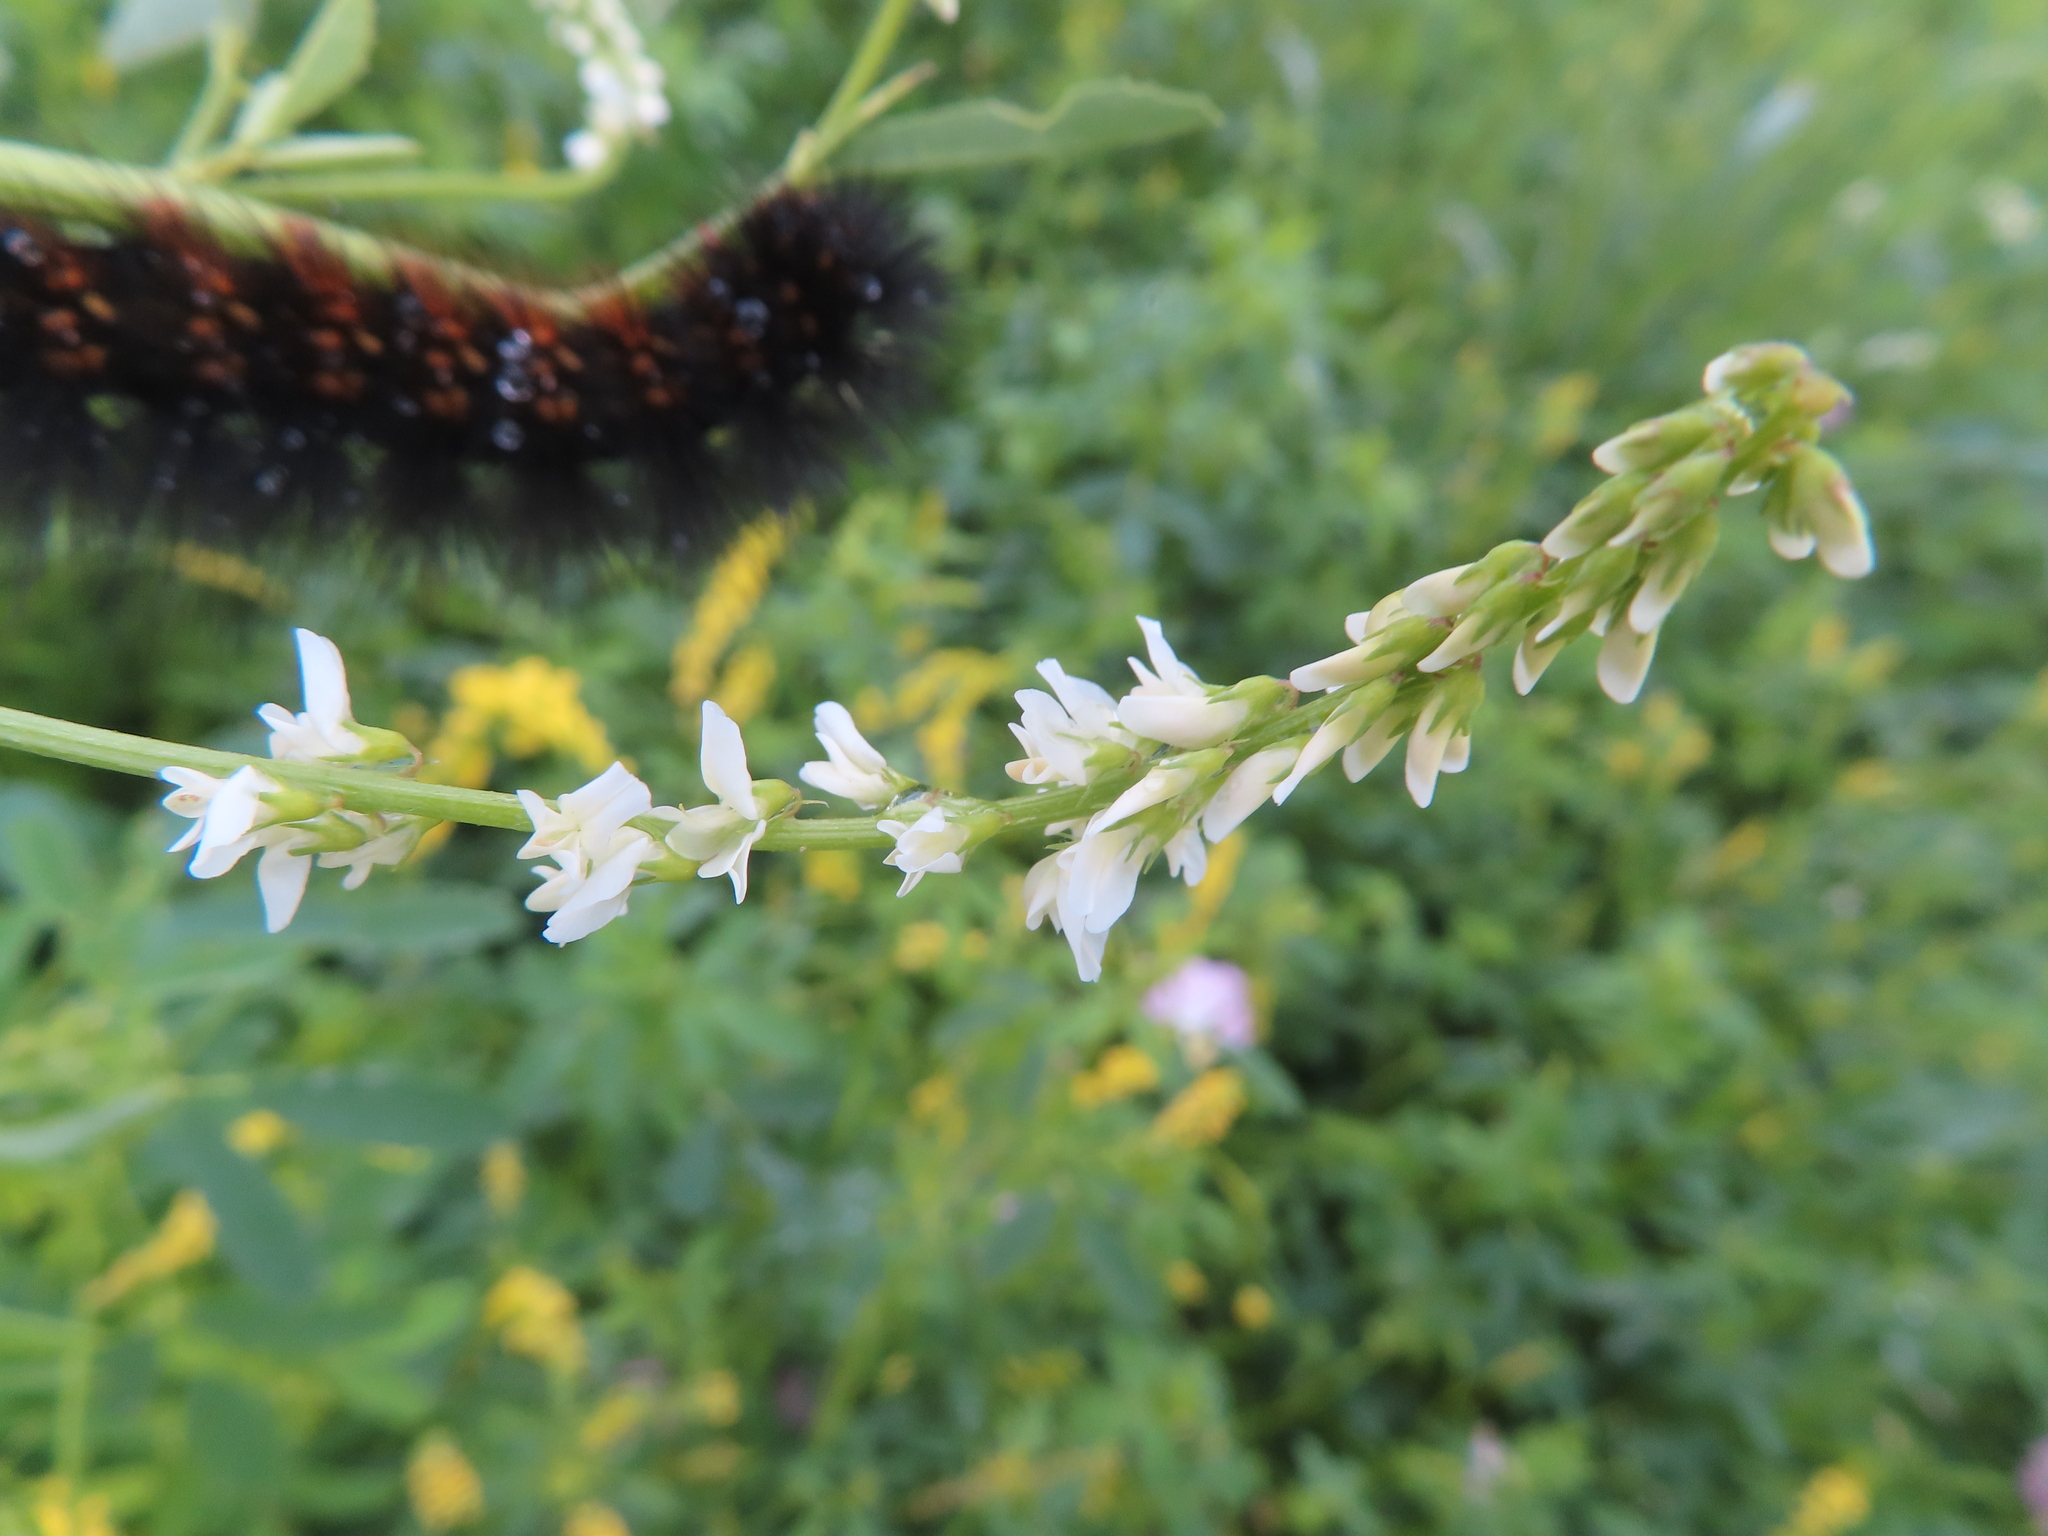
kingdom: Plantae
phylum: Tracheophyta
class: Magnoliopsida
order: Fabales
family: Fabaceae
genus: Melilotus
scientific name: Melilotus albus
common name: White melilot
